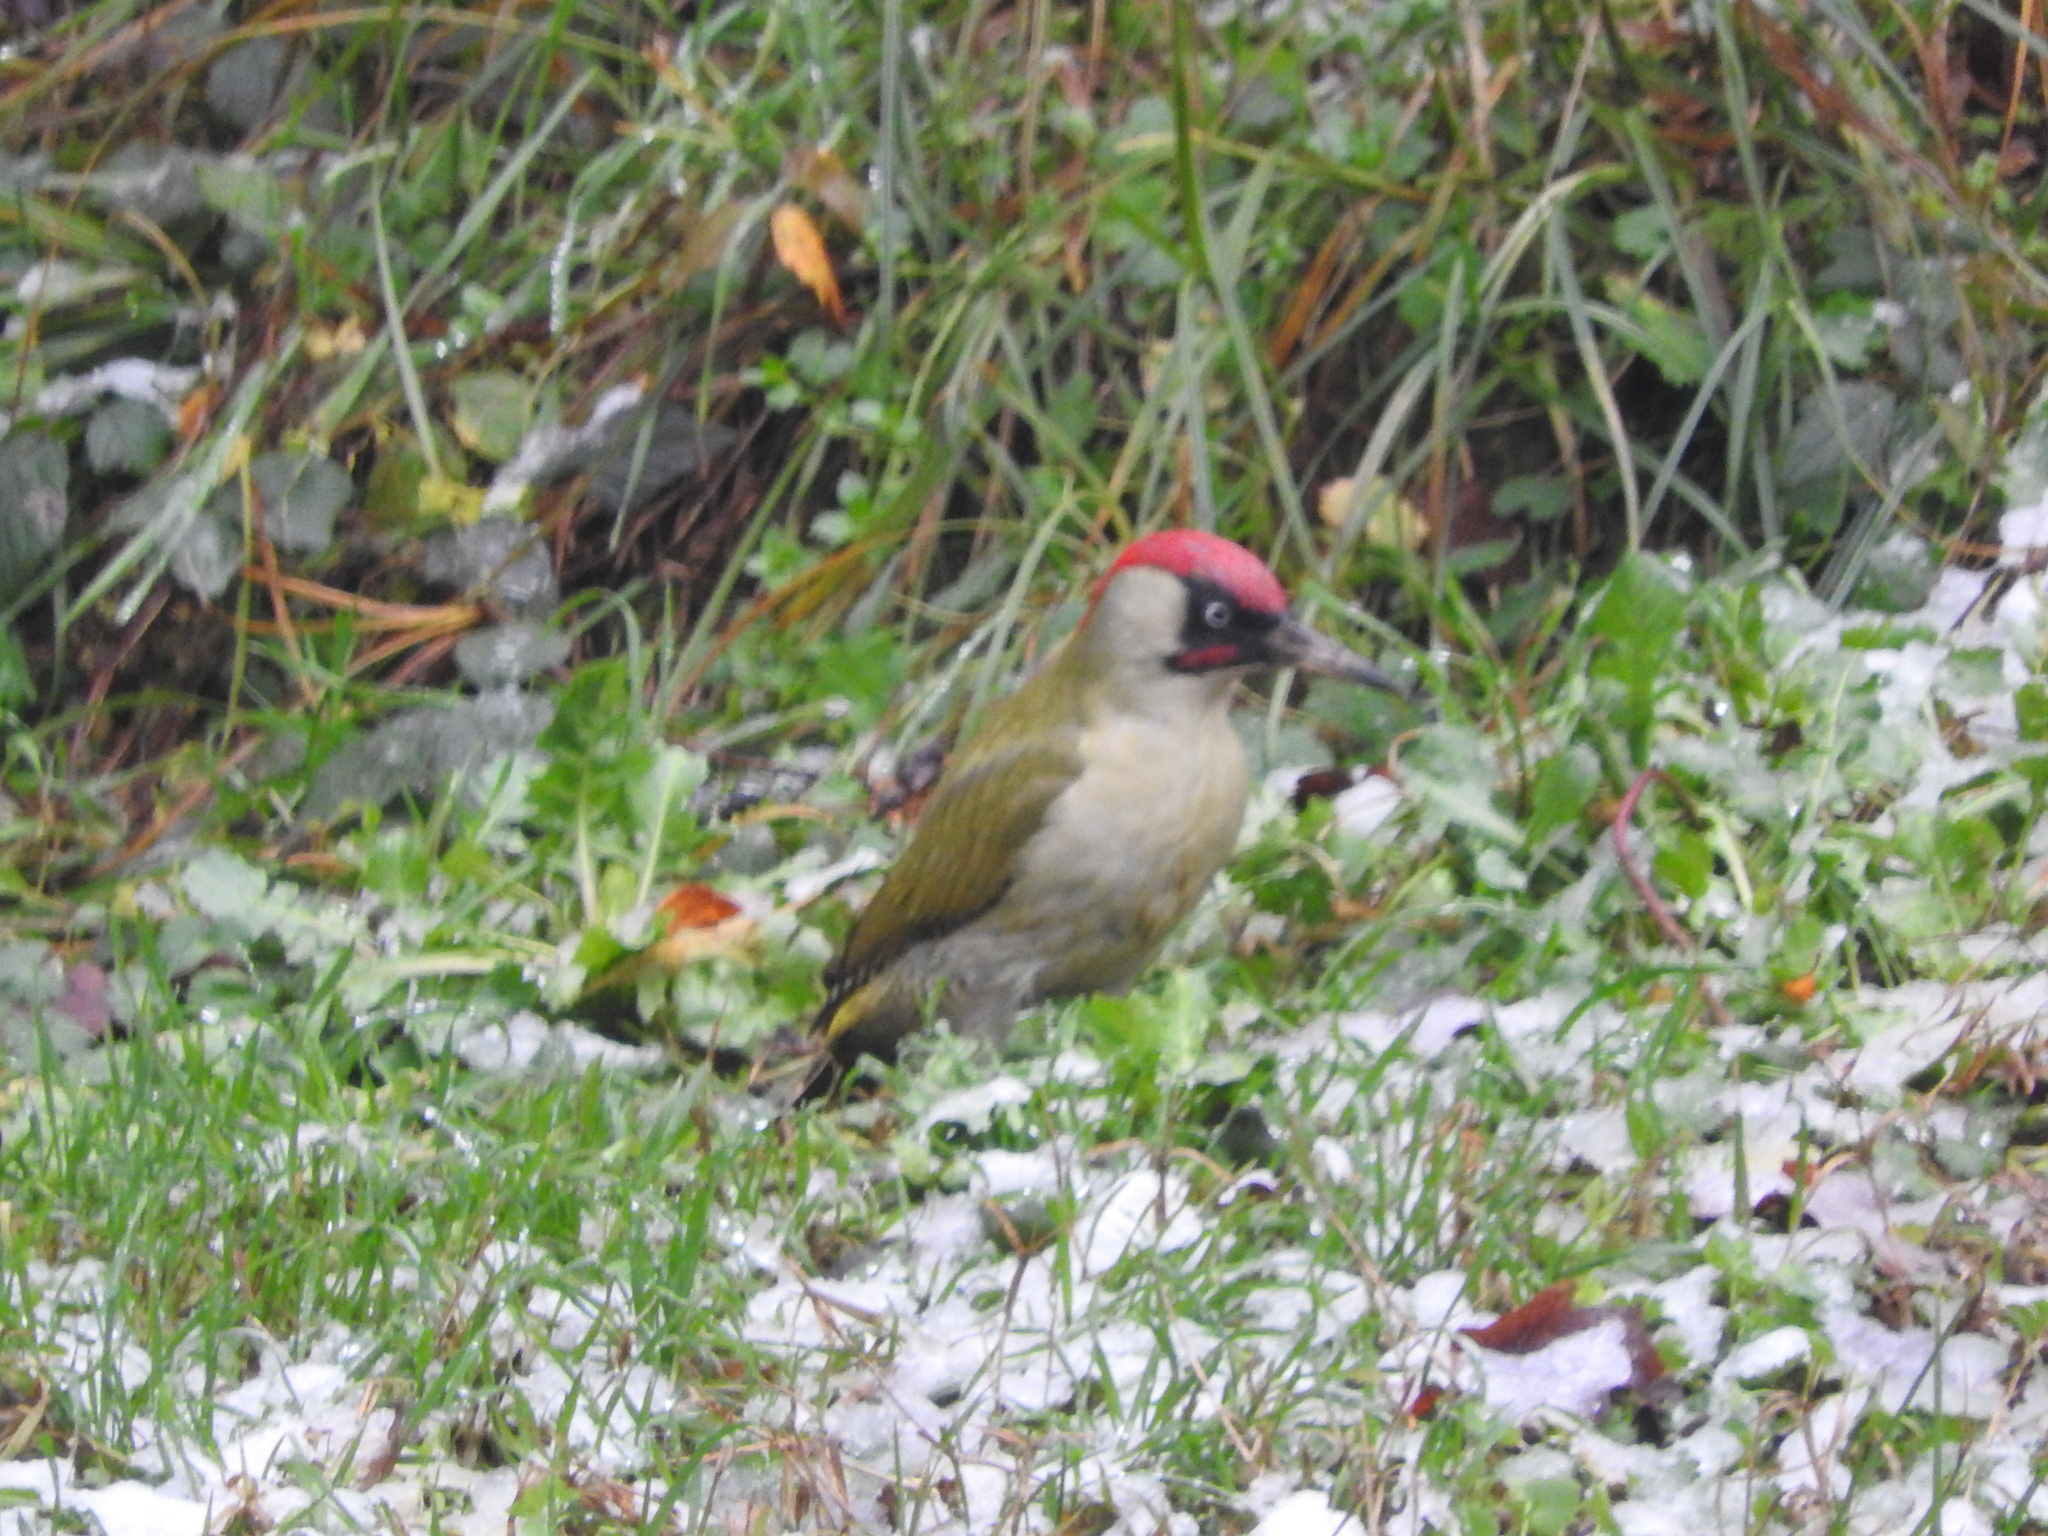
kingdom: Animalia
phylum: Chordata
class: Aves
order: Piciformes
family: Picidae
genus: Picus
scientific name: Picus viridis
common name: European green woodpecker
